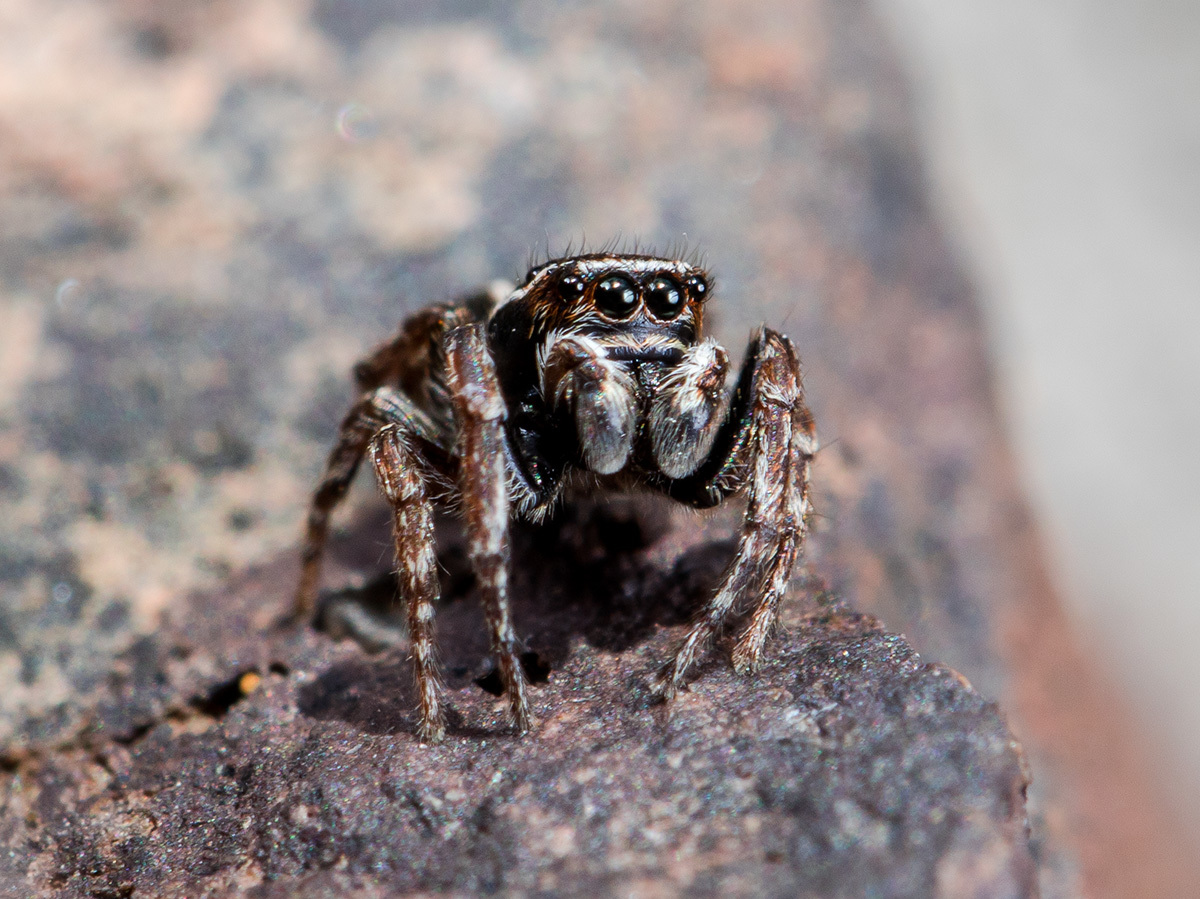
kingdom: Animalia
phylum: Arthropoda
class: Arachnida
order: Araneae
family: Salticidae
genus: Attulus
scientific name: Attulus monstrabilis
